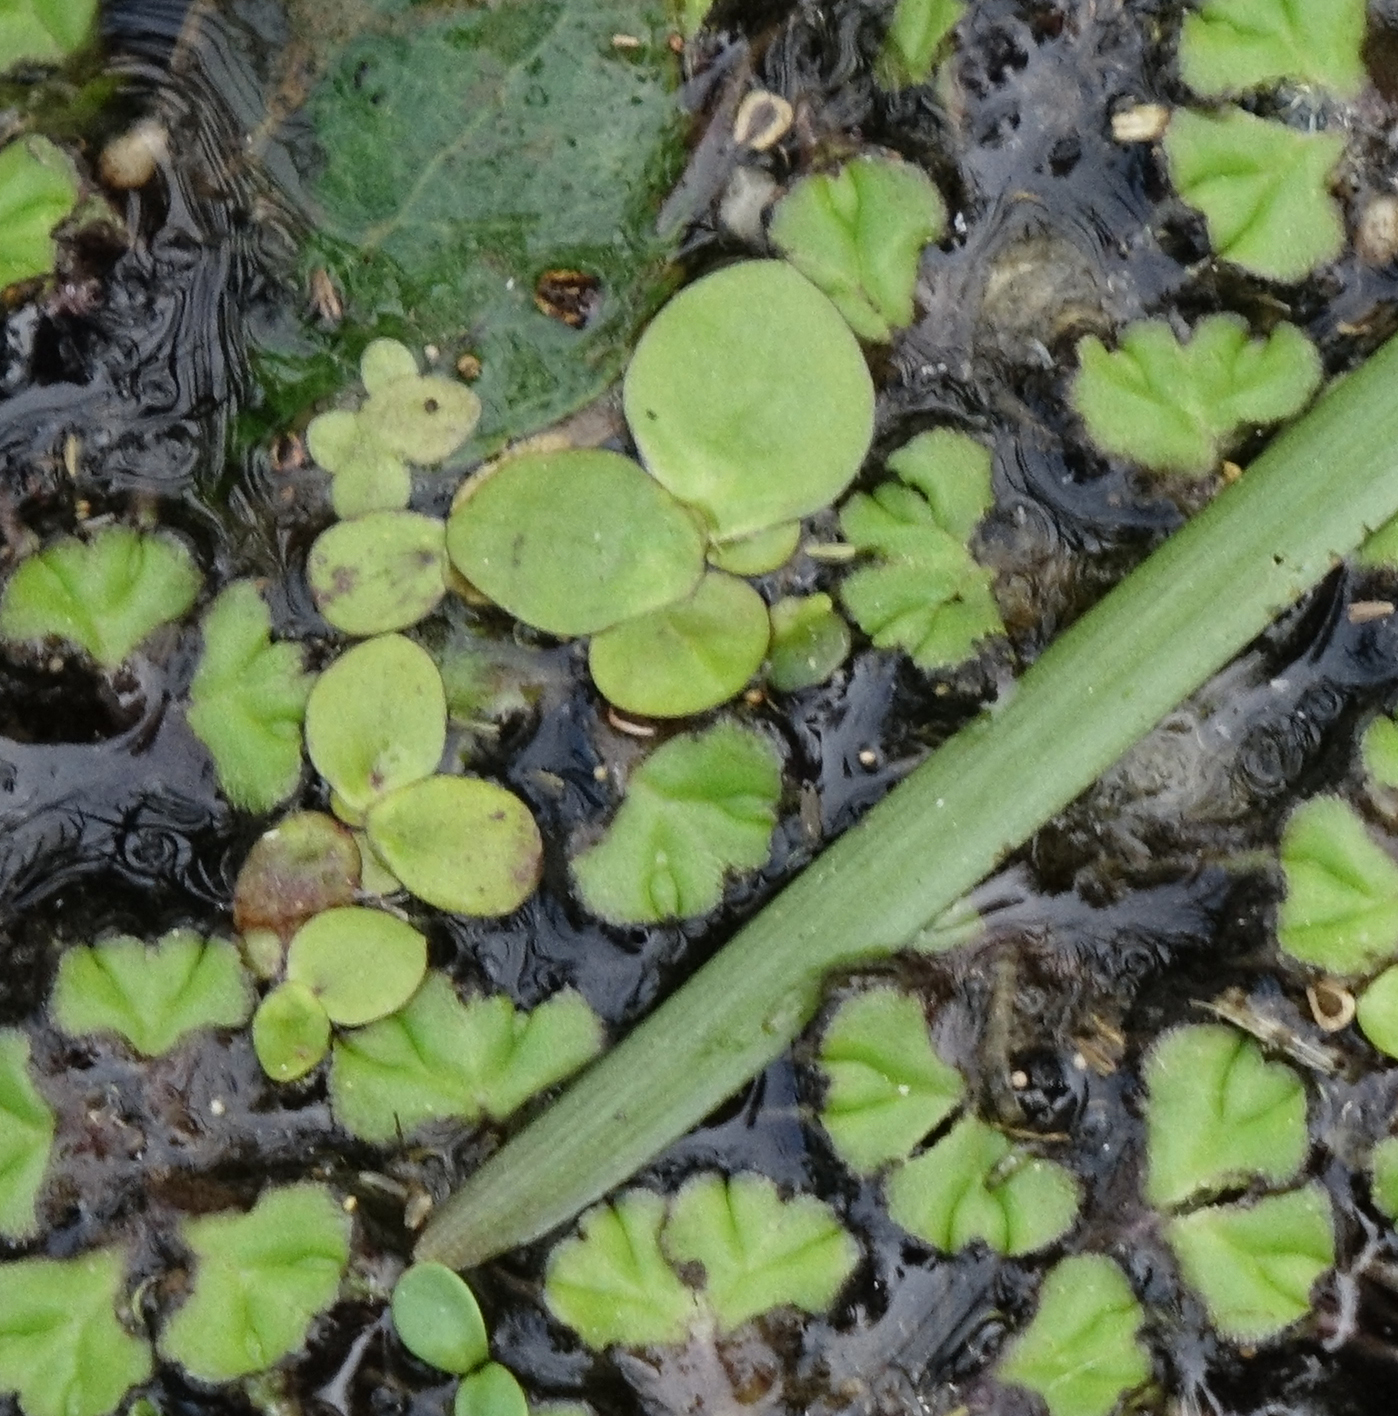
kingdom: Plantae
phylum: Tracheophyta
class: Liliopsida
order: Alismatales
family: Araceae
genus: Spirodela
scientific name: Spirodela polyrhiza
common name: Great duckweed
